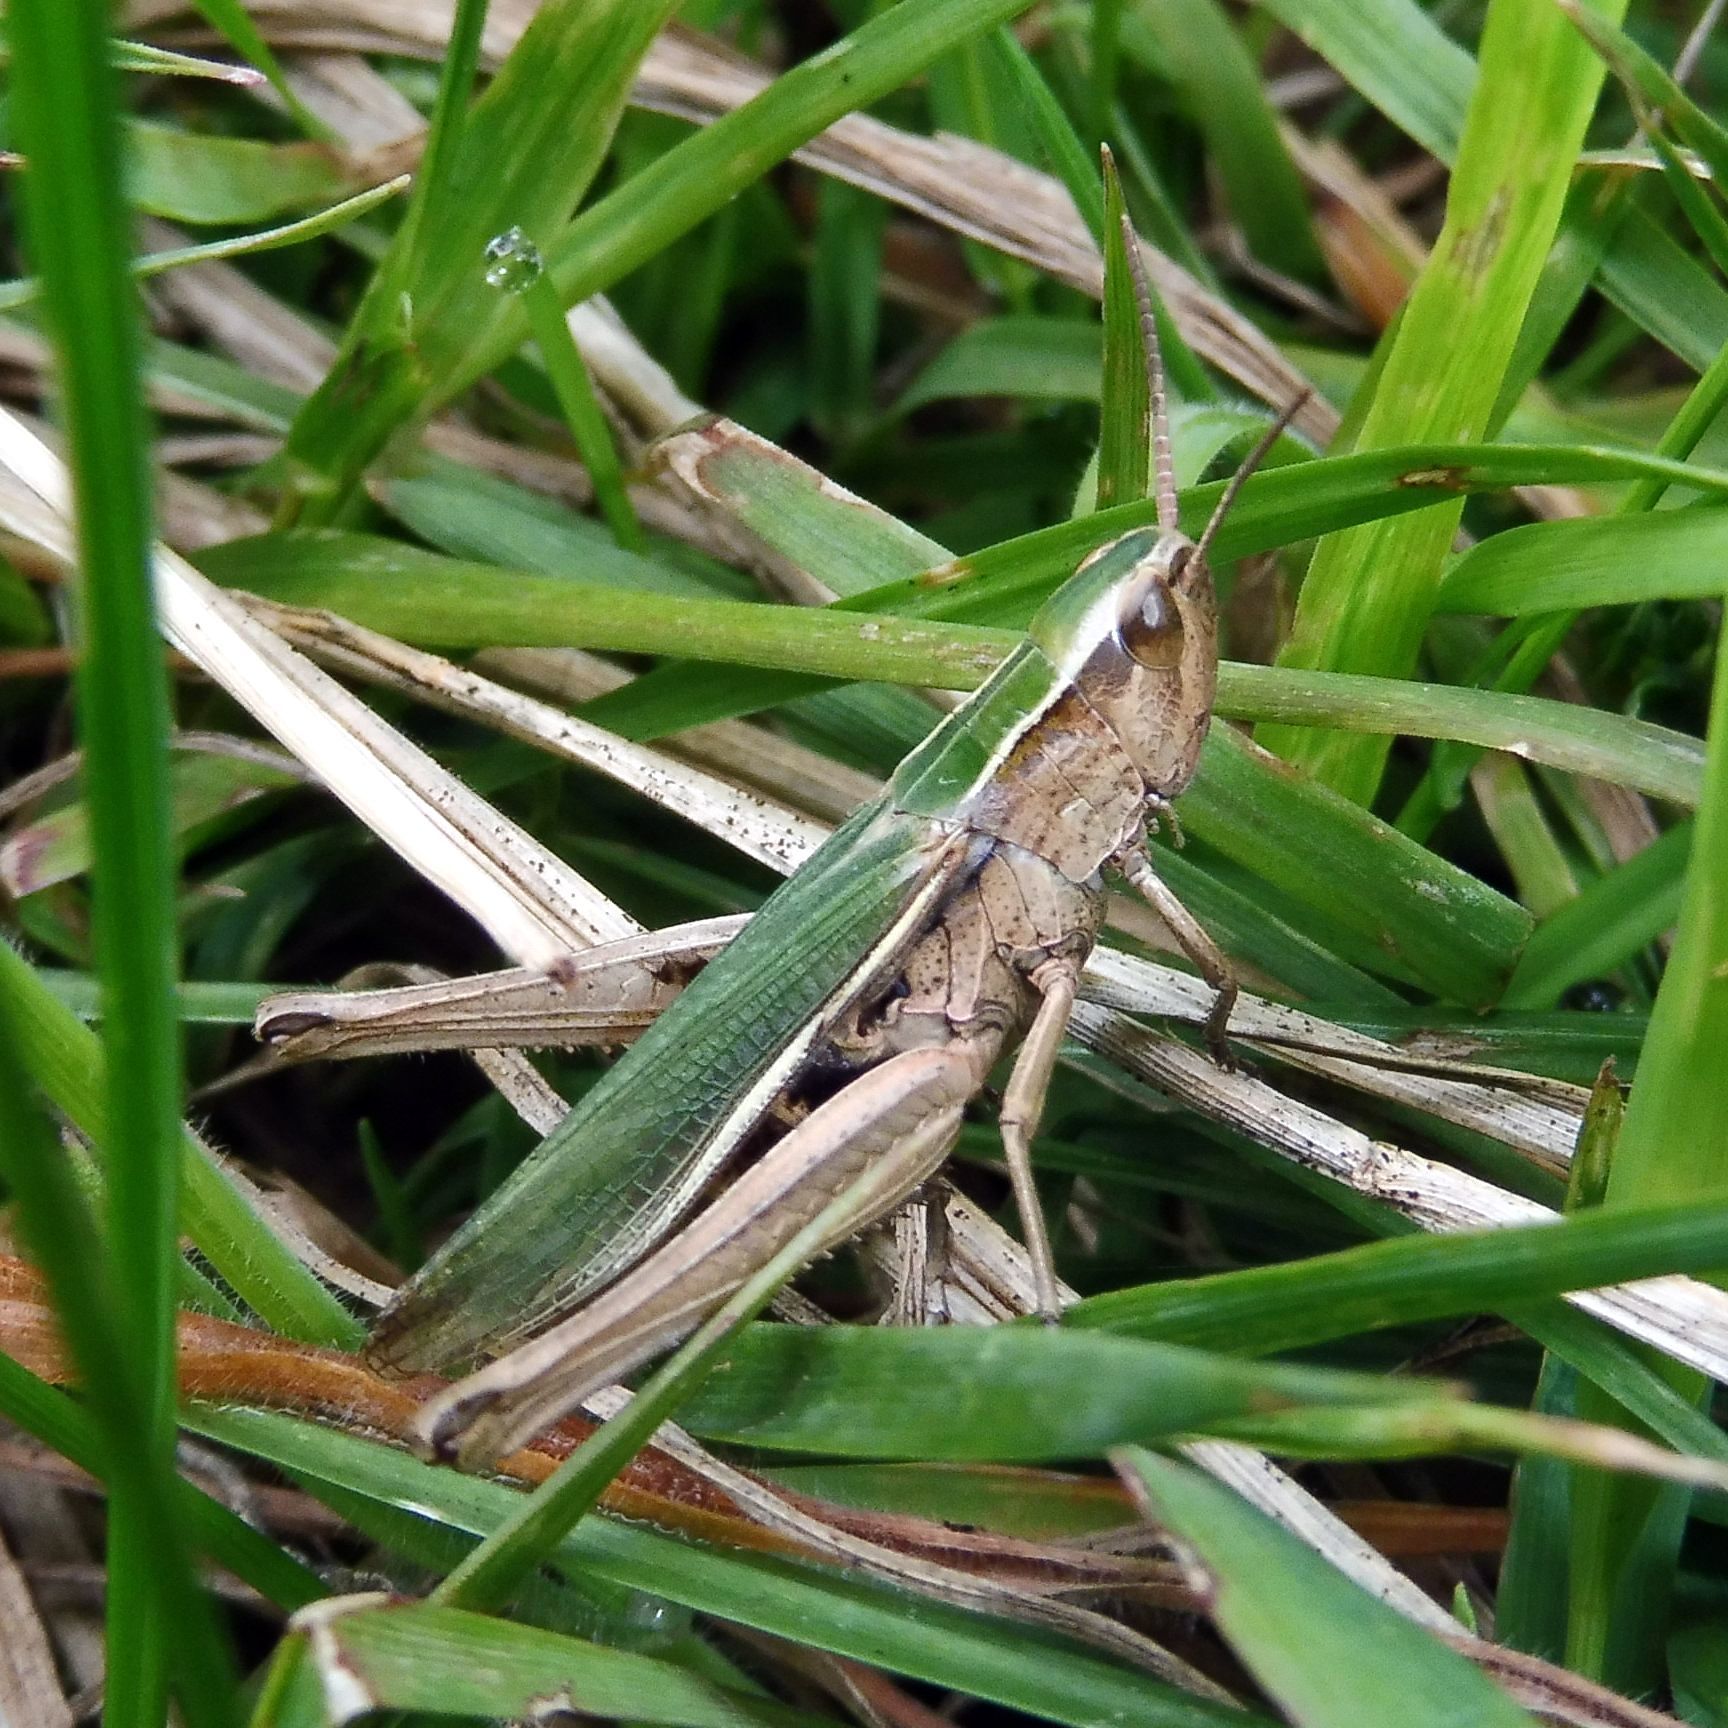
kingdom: Animalia
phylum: Arthropoda
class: Insecta
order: Orthoptera
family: Acrididae
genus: Chorthippus
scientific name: Chorthippus albomarginatus
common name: Lesser marsh grasshopper
